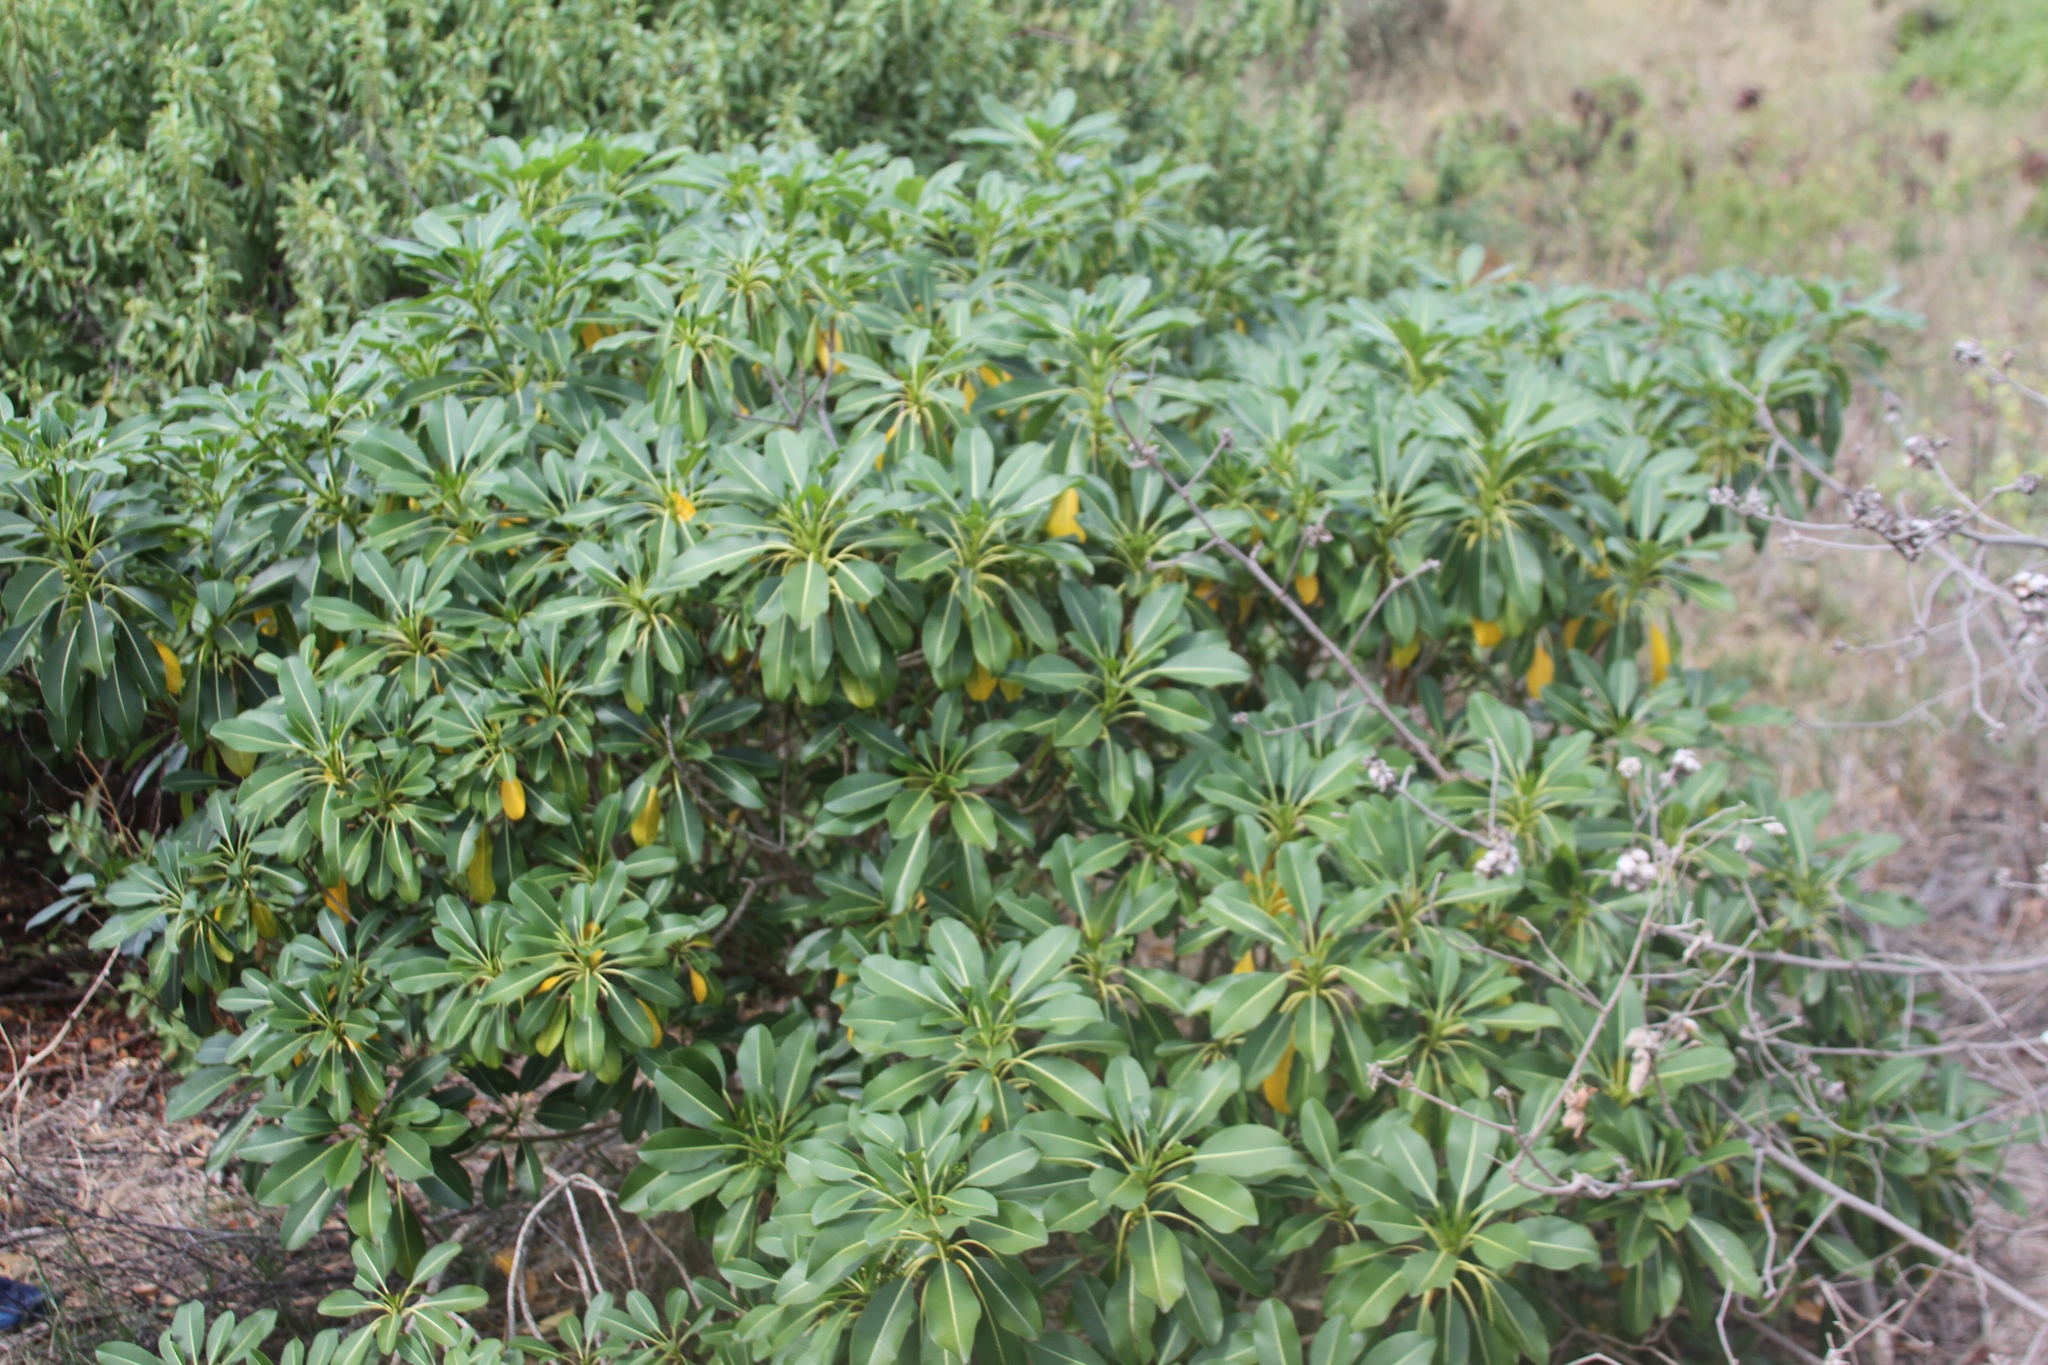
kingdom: Plantae
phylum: Tracheophyta
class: Magnoliopsida
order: Gentianales
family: Apocynaceae
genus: Rauvolfia
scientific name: Rauvolfia sandwicensis
